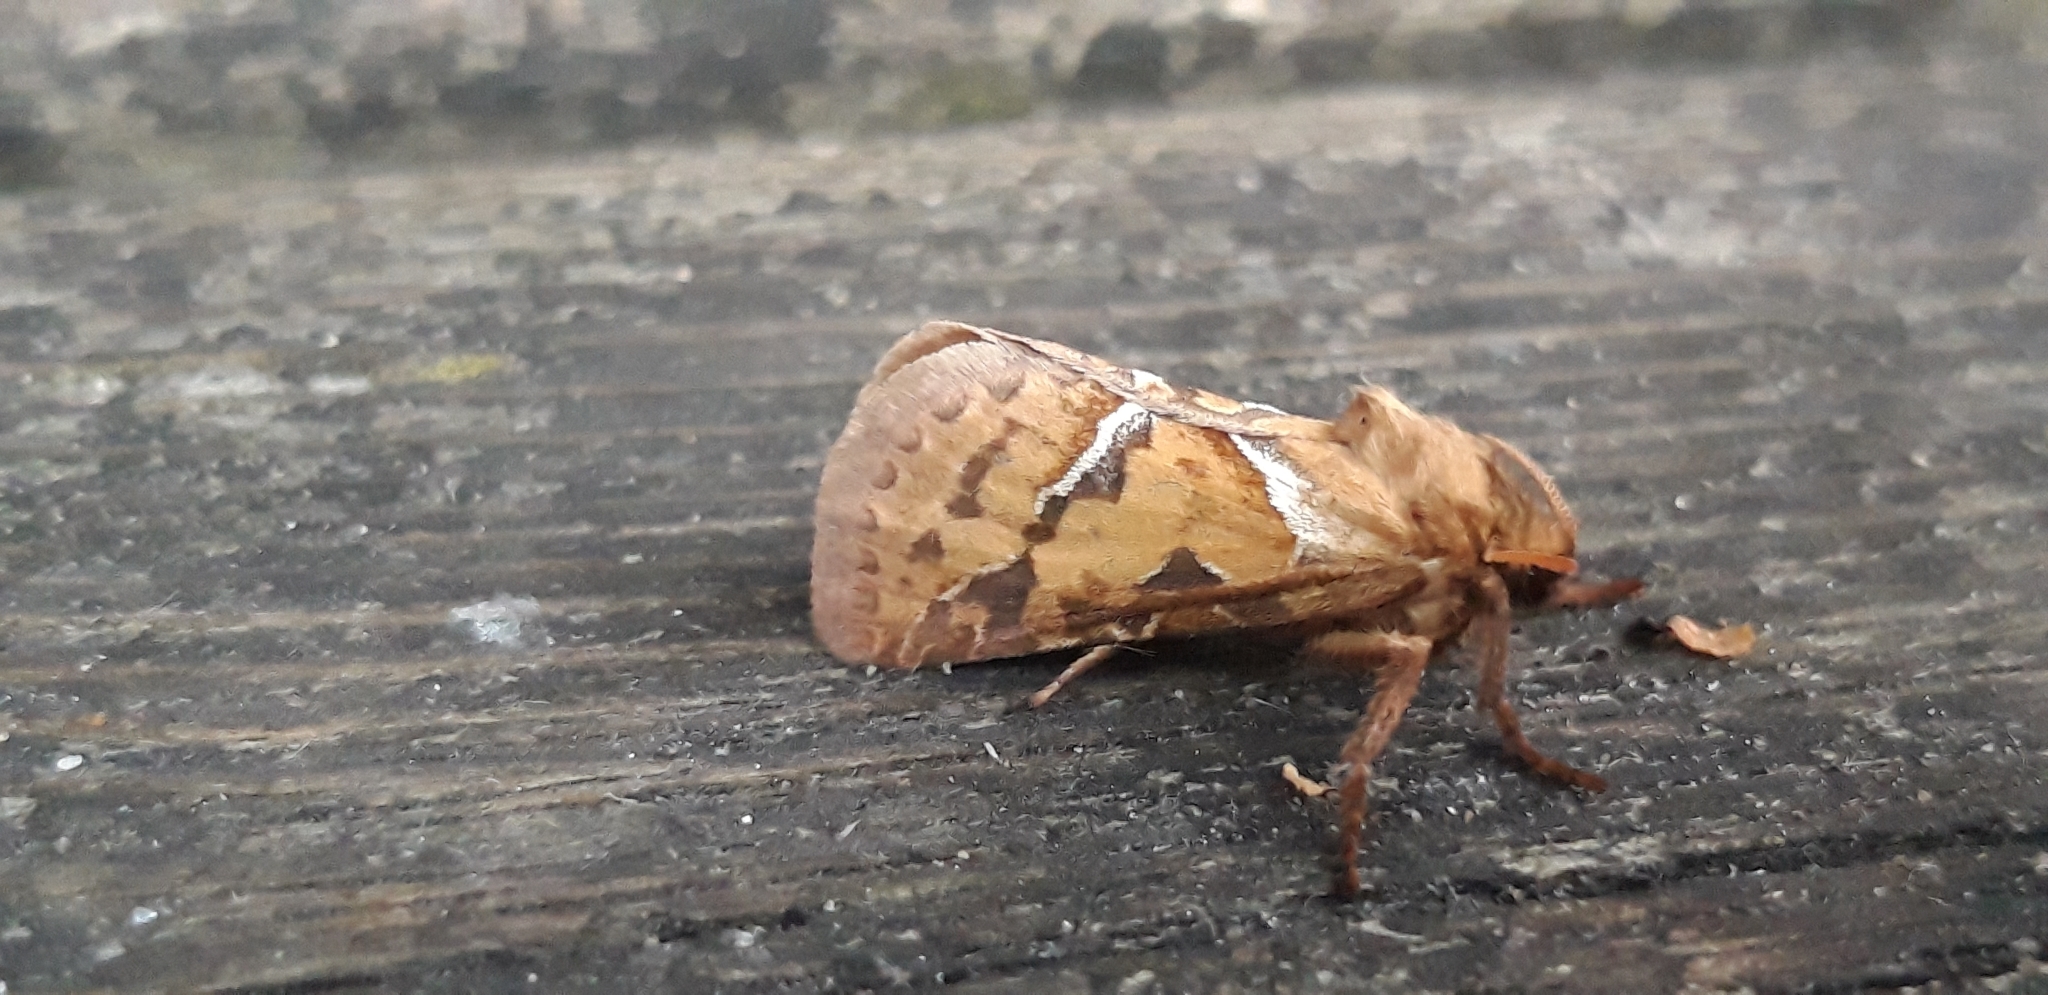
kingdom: Animalia
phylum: Arthropoda
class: Insecta
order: Lepidoptera
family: Hepialidae
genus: Triodia
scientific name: Triodia sylvina
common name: Orange swift
